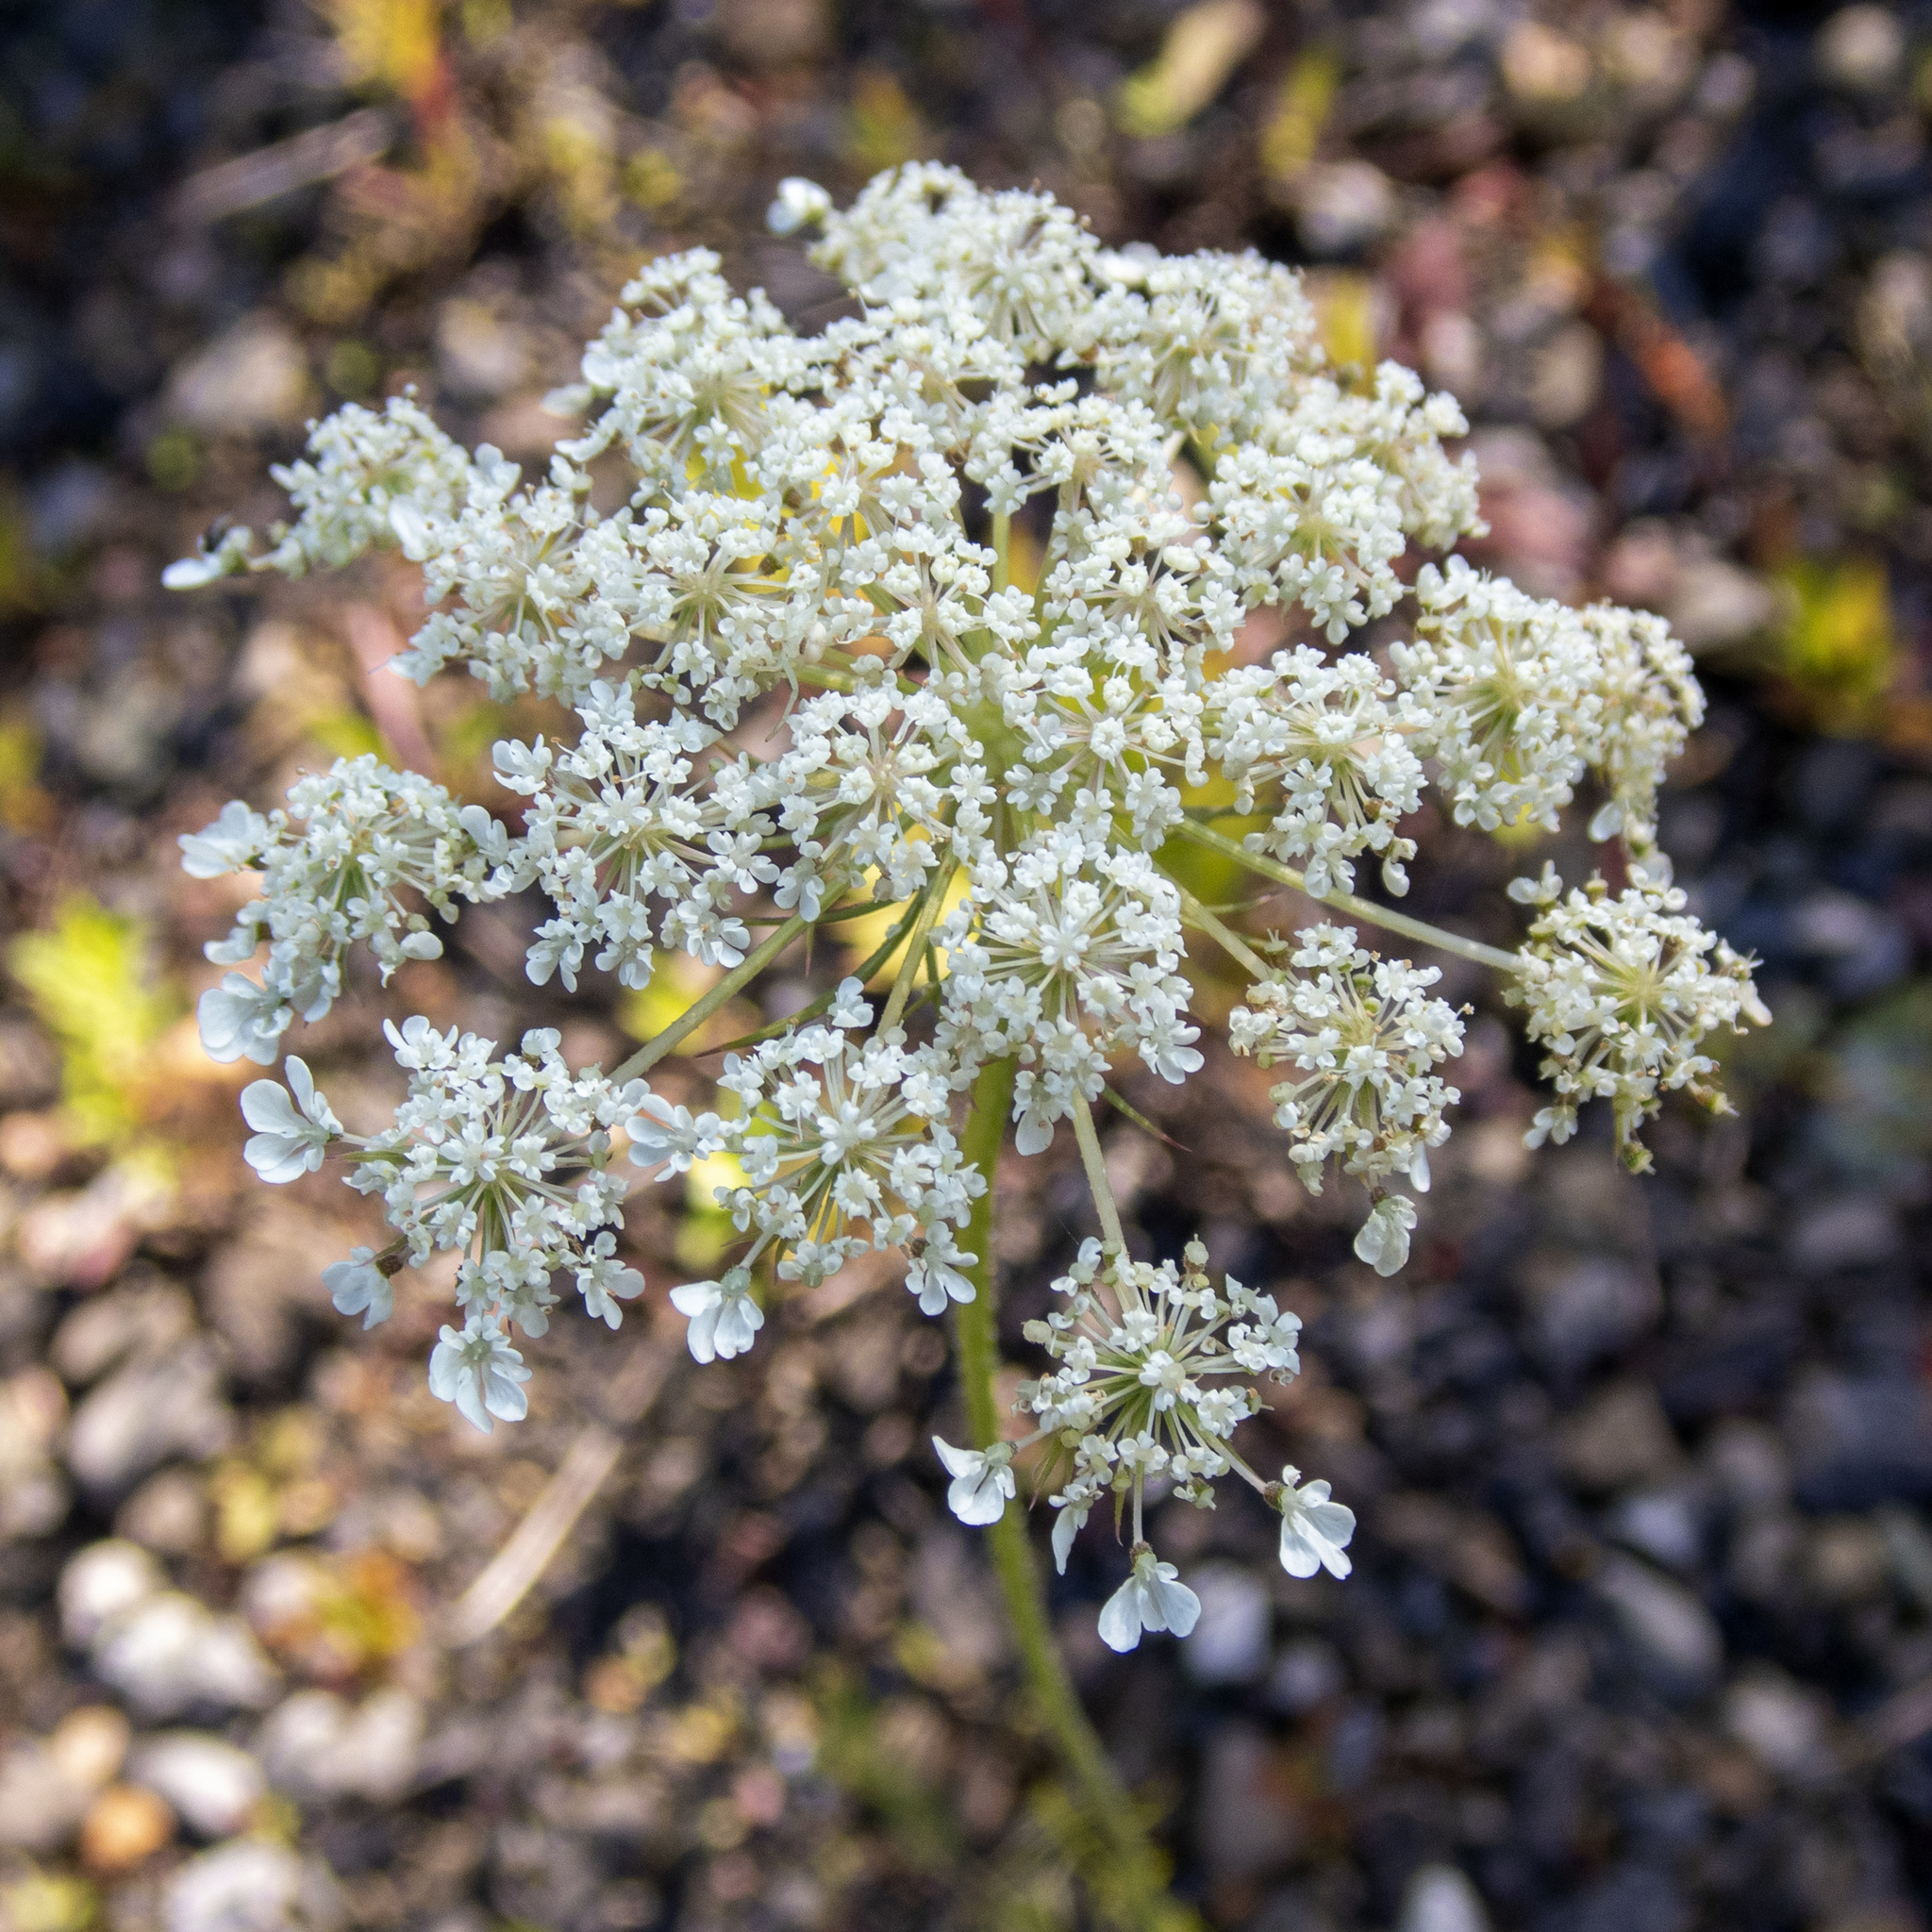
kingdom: Plantae
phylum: Tracheophyta
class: Magnoliopsida
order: Apiales
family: Apiaceae
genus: Daucus
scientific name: Daucus carota
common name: Wild carrot
